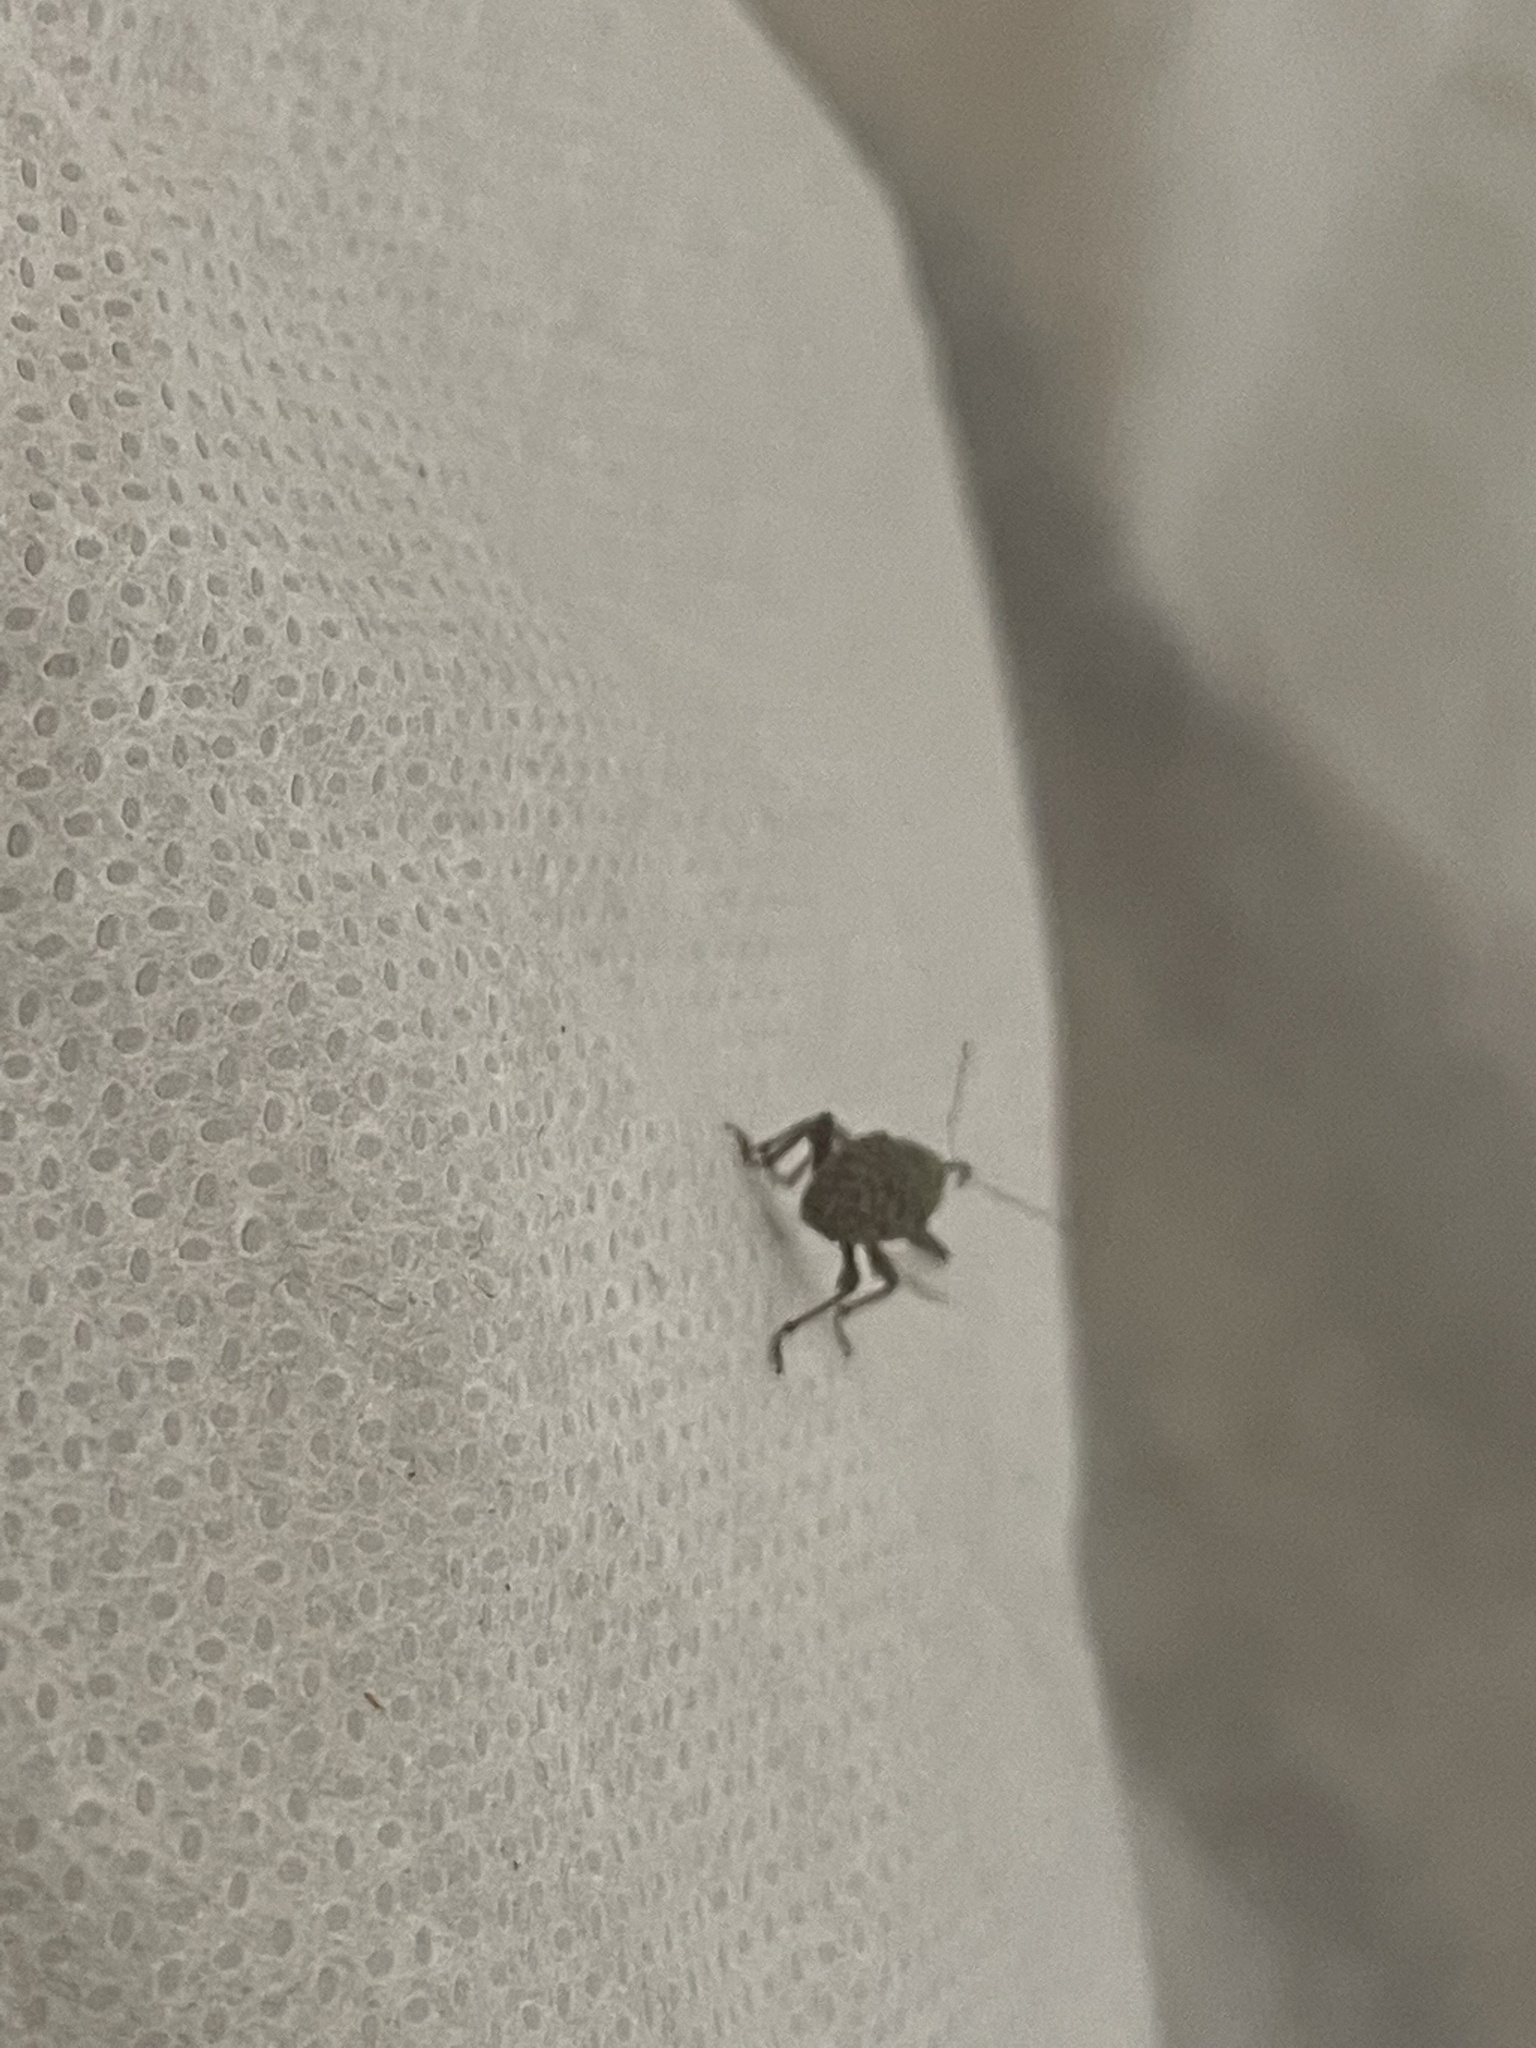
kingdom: Animalia
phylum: Arthropoda
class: Insecta
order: Coleoptera
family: Curculionidae
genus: Curculio
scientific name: Curculio
